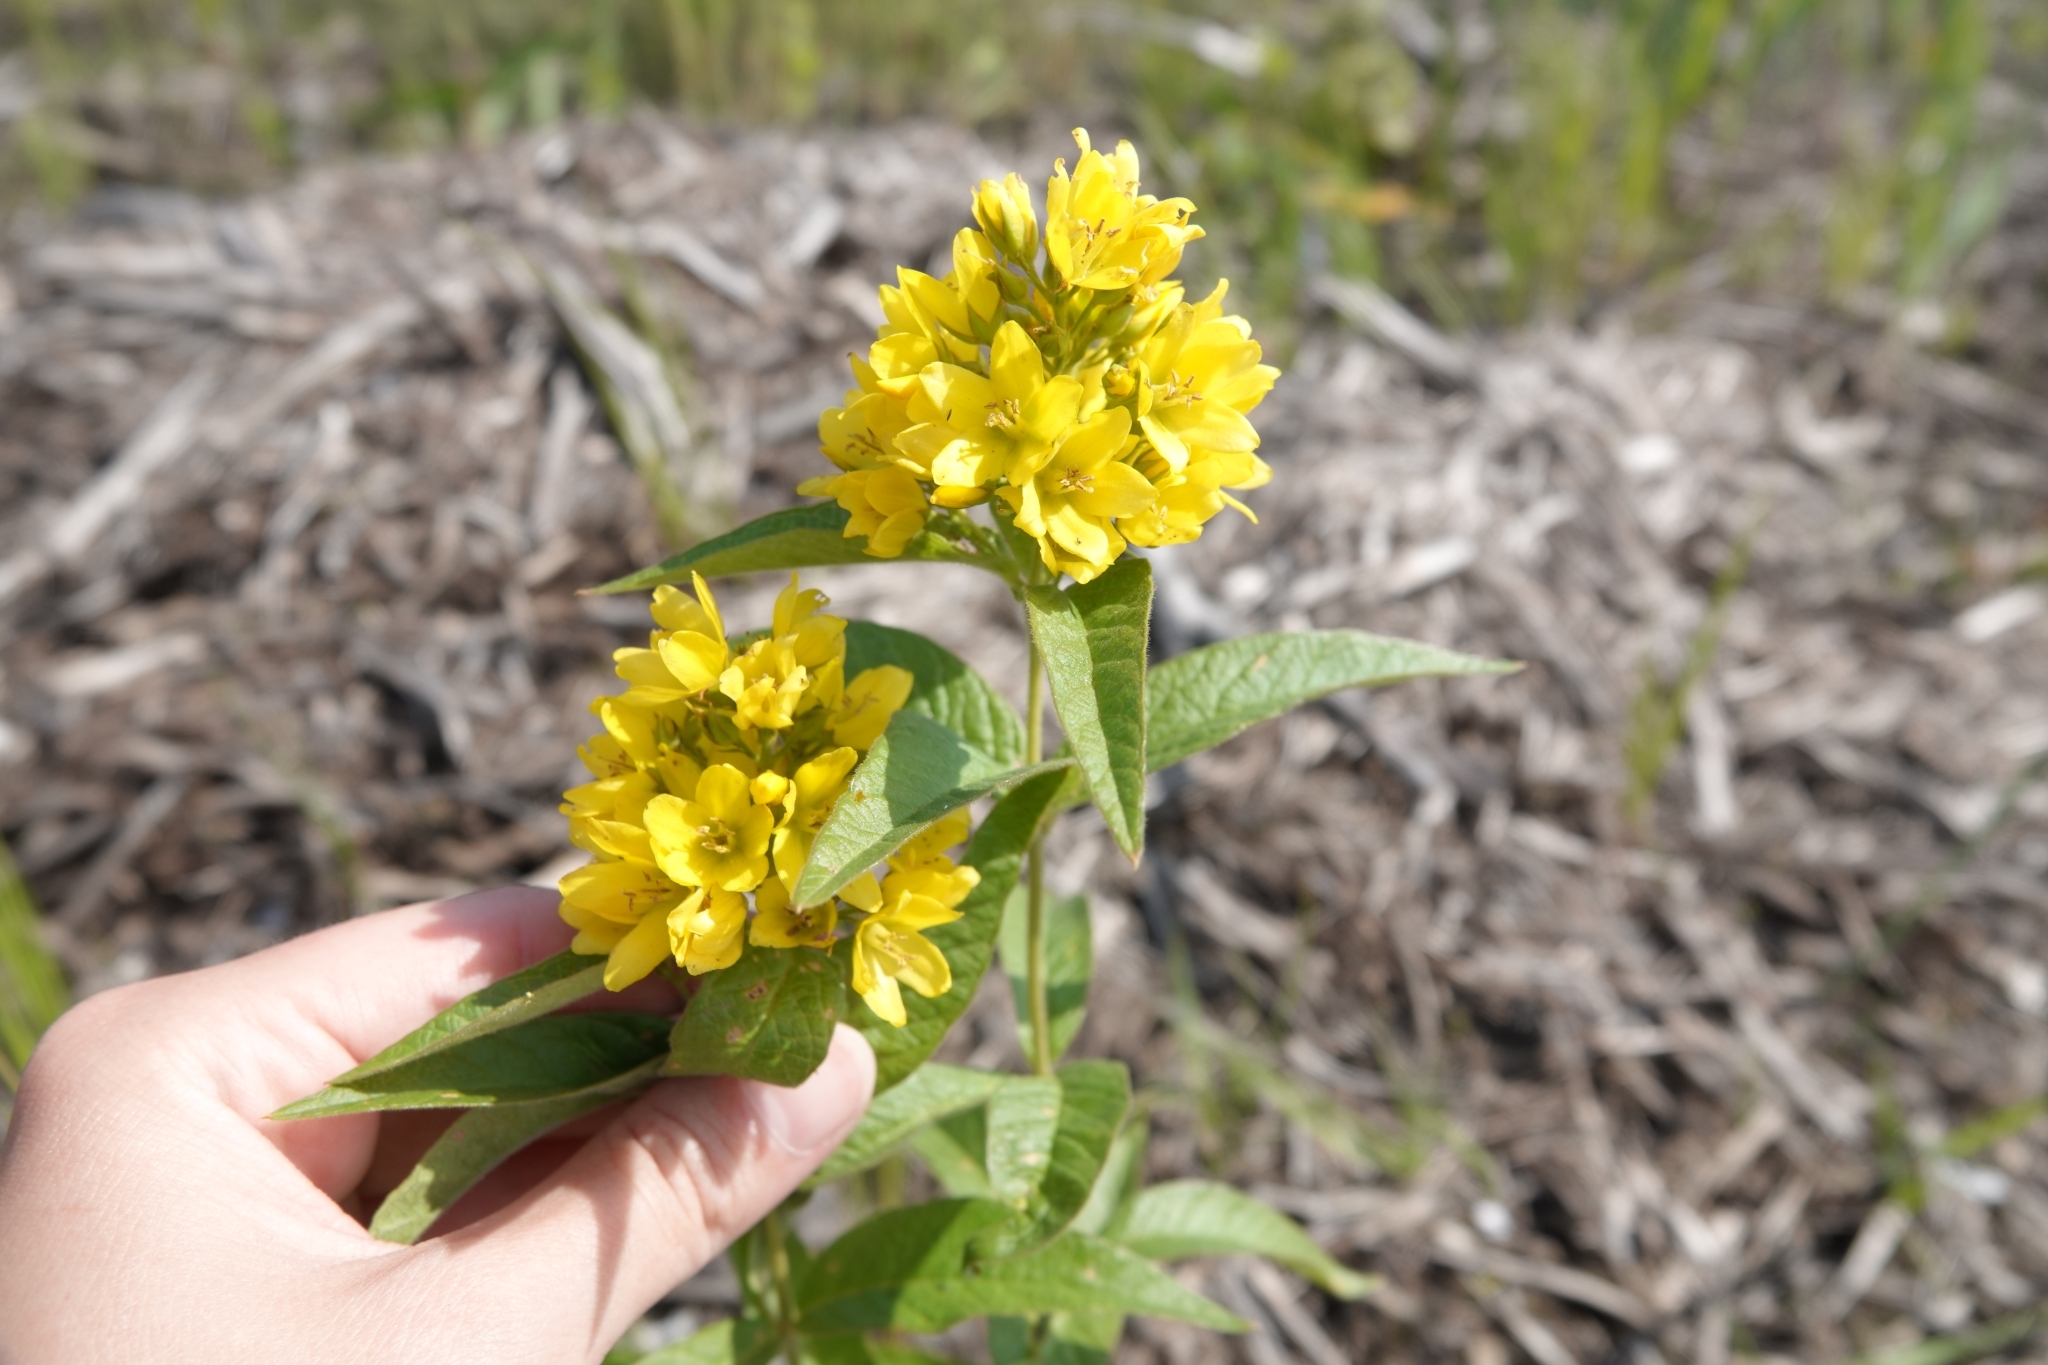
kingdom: Plantae
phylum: Tracheophyta
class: Magnoliopsida
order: Ericales
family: Primulaceae
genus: Lysimachia
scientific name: Lysimachia vulgaris
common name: Yellow loosestrife
